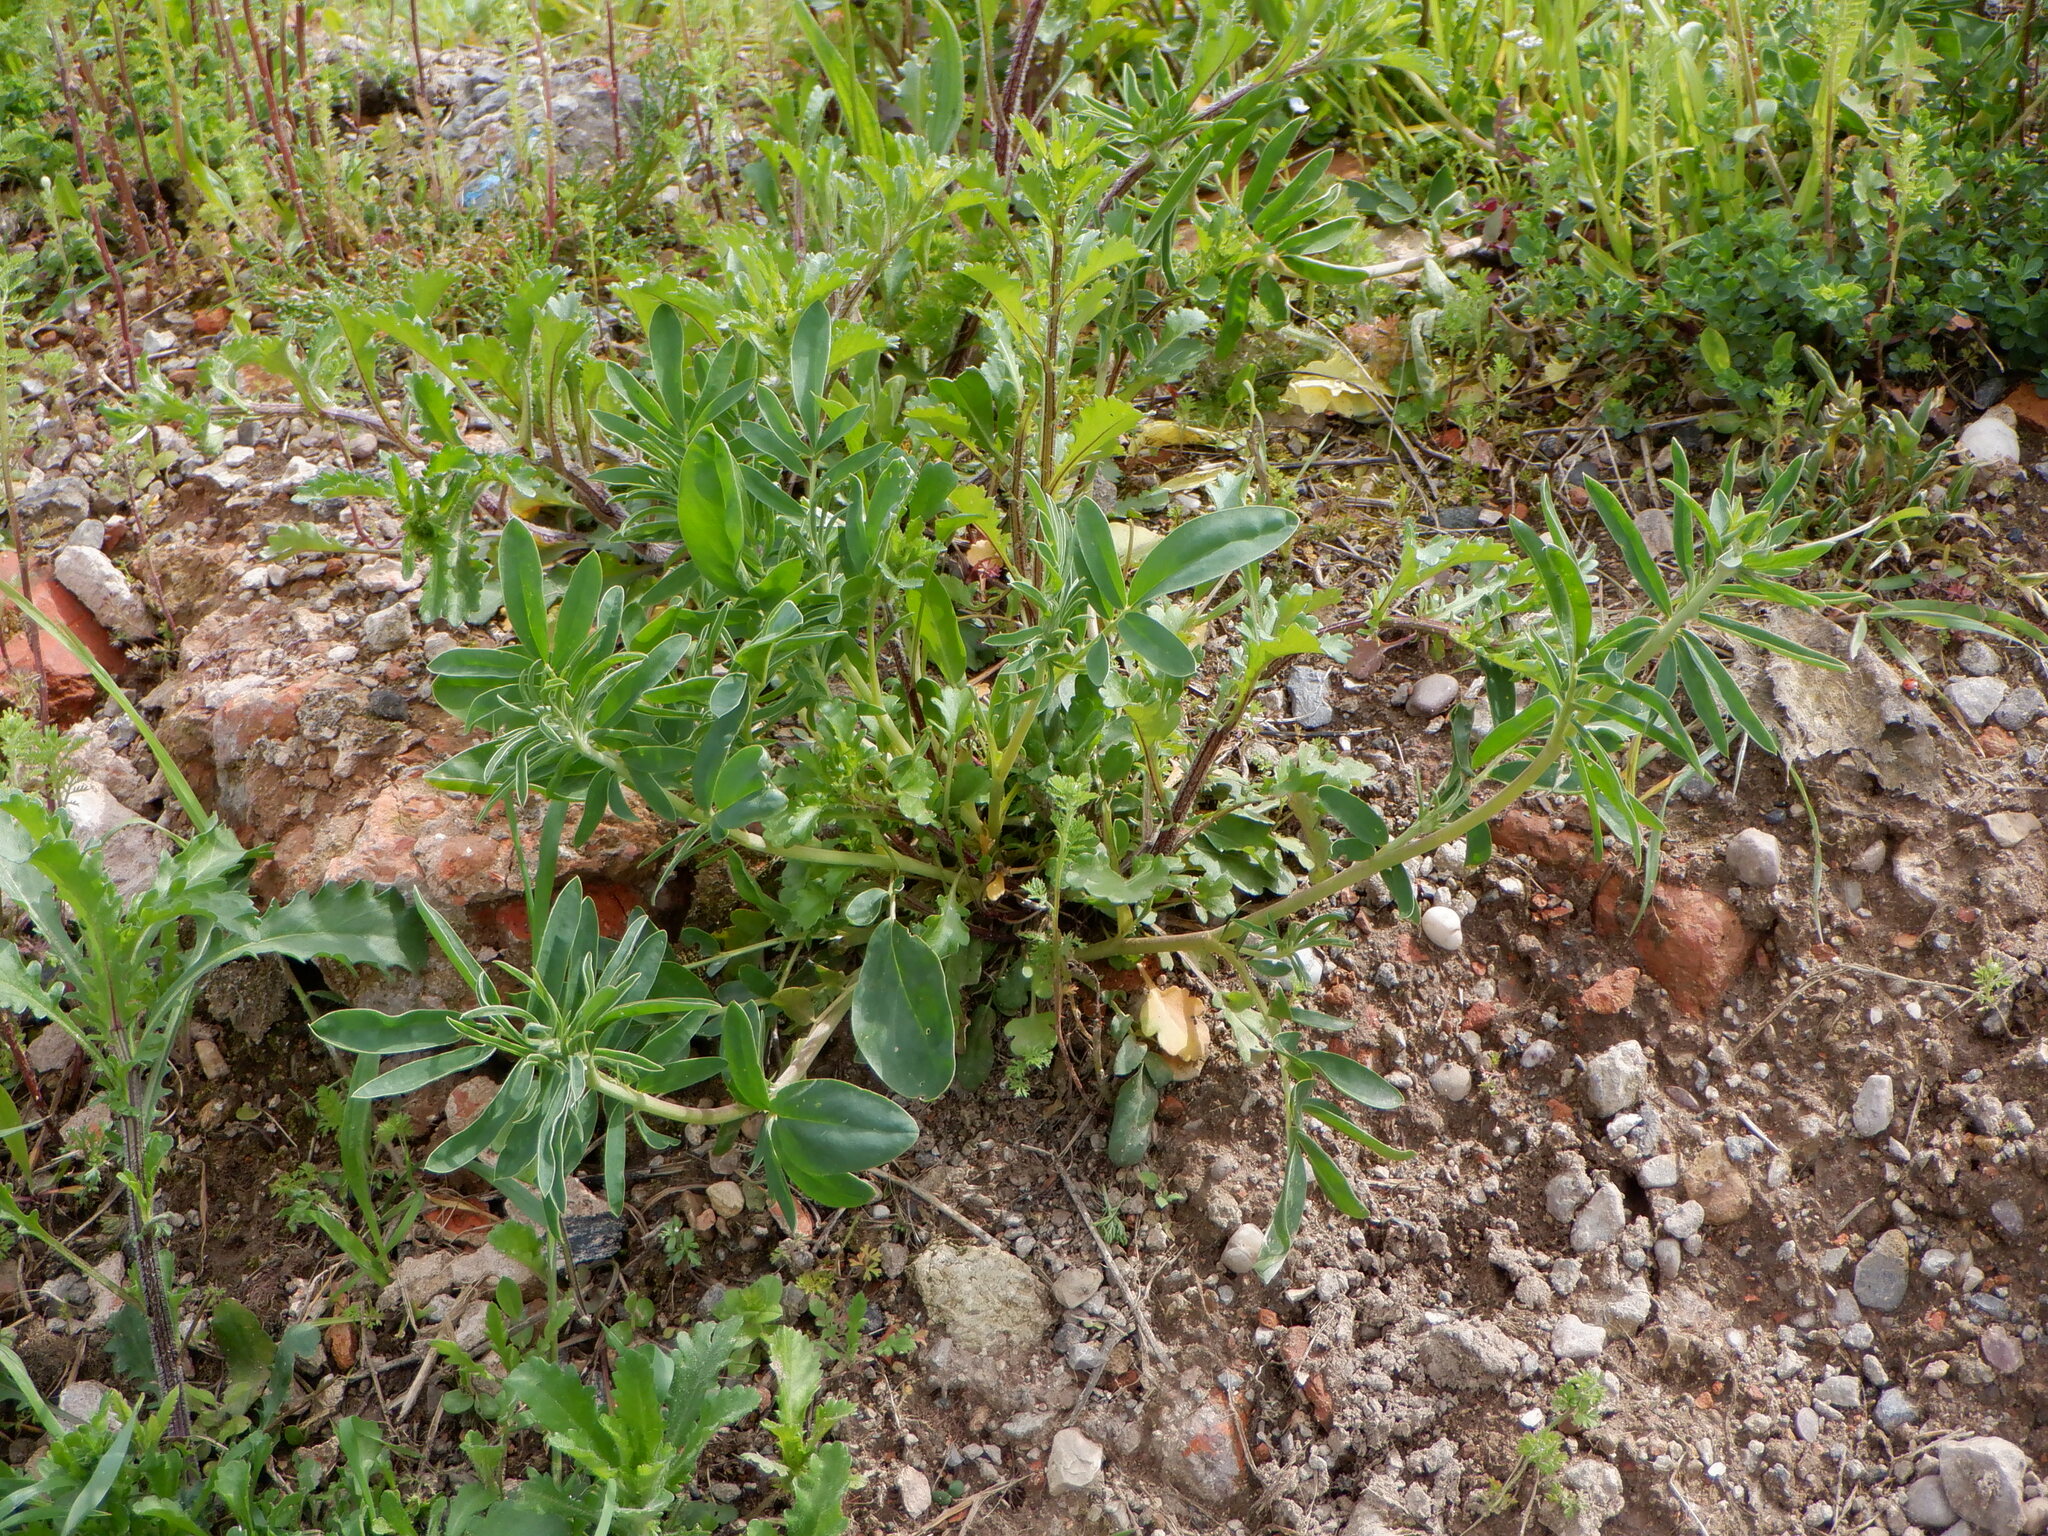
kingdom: Plantae
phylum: Tracheophyta
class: Magnoliopsida
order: Fabales
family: Fabaceae
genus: Anthyllis
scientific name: Anthyllis vulneraria
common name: Kidney vetch
